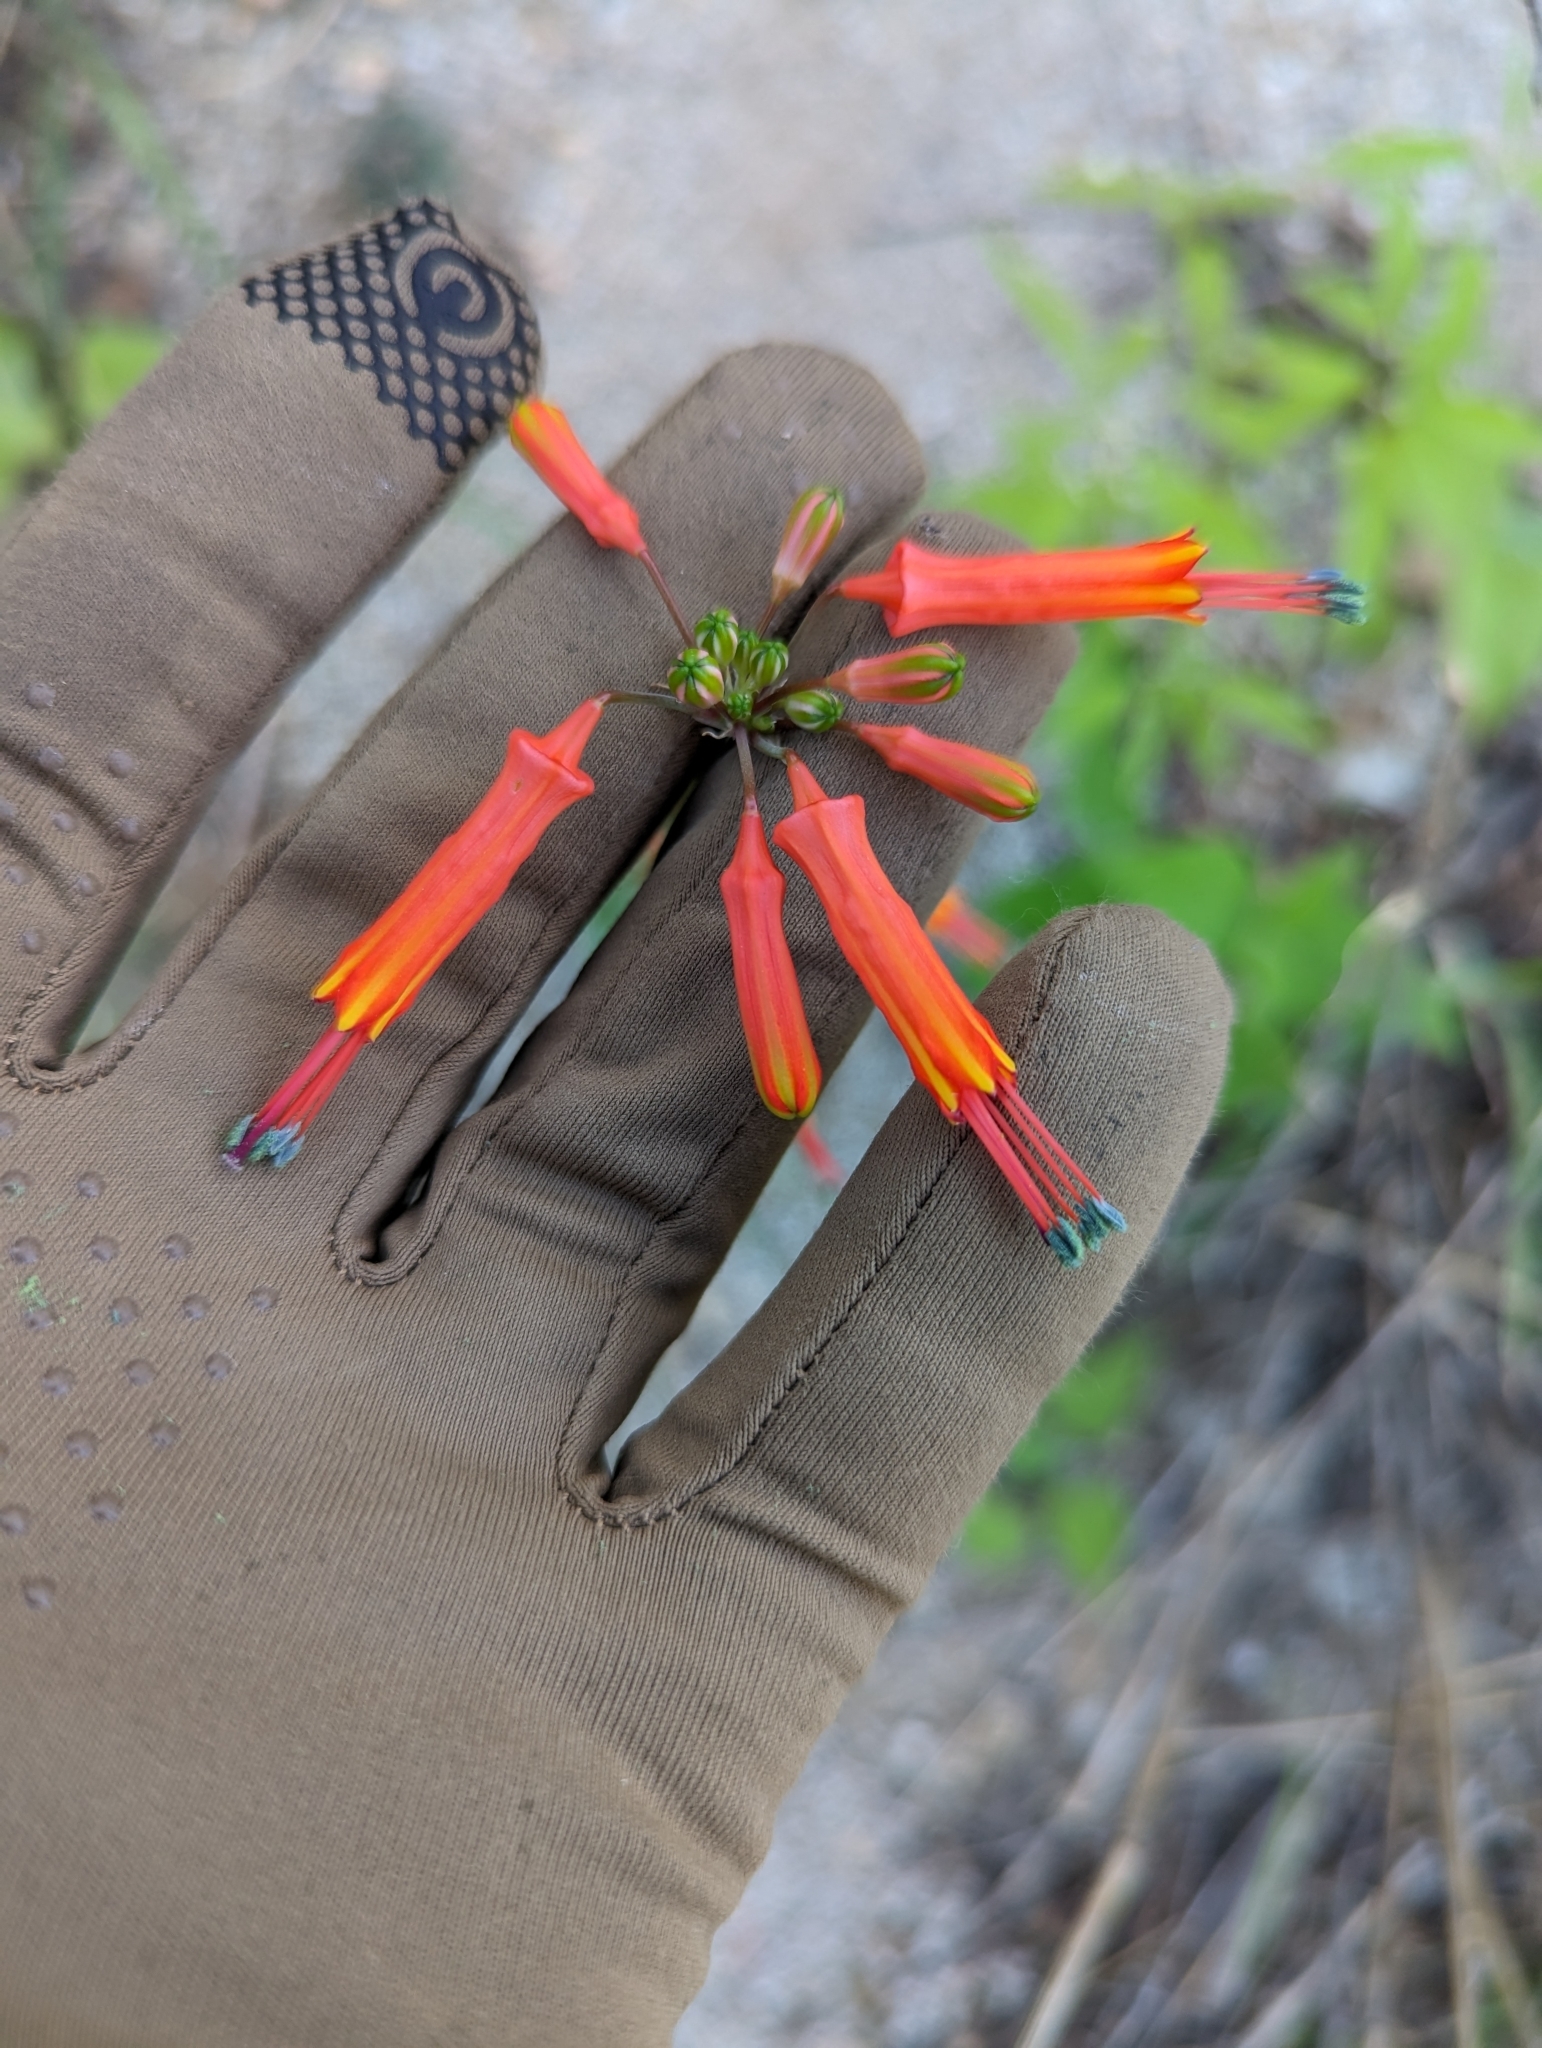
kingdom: Plantae
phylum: Tracheophyta
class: Liliopsida
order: Asparagales
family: Asparagaceae
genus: Bessera
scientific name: Bessera tenuiflora
